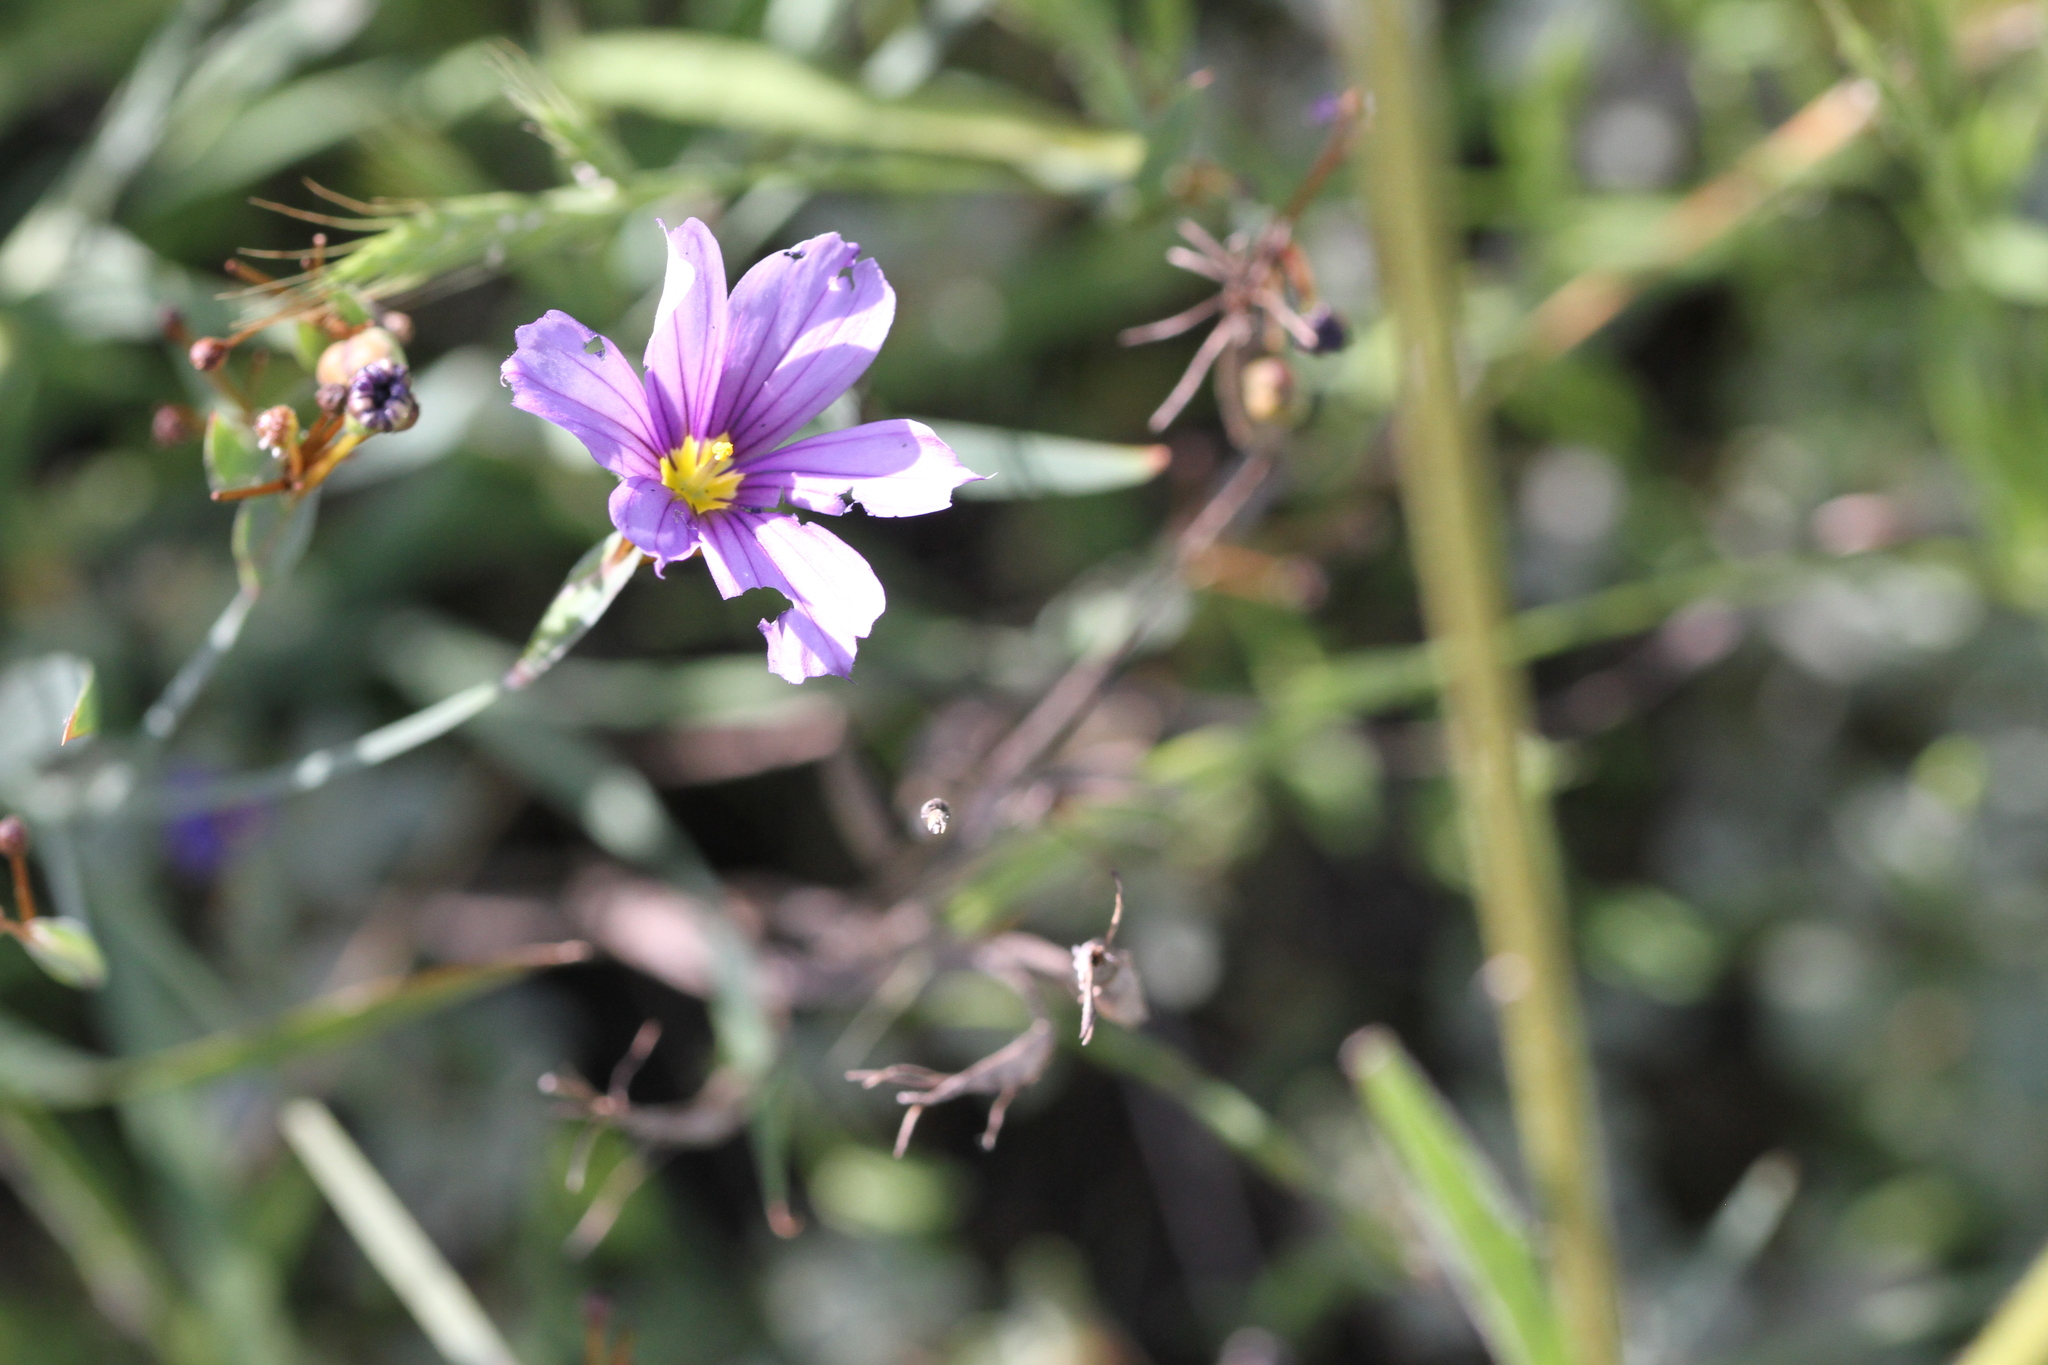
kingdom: Plantae
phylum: Tracheophyta
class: Liliopsida
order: Asparagales
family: Iridaceae
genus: Sisyrinchium
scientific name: Sisyrinchium bellum
